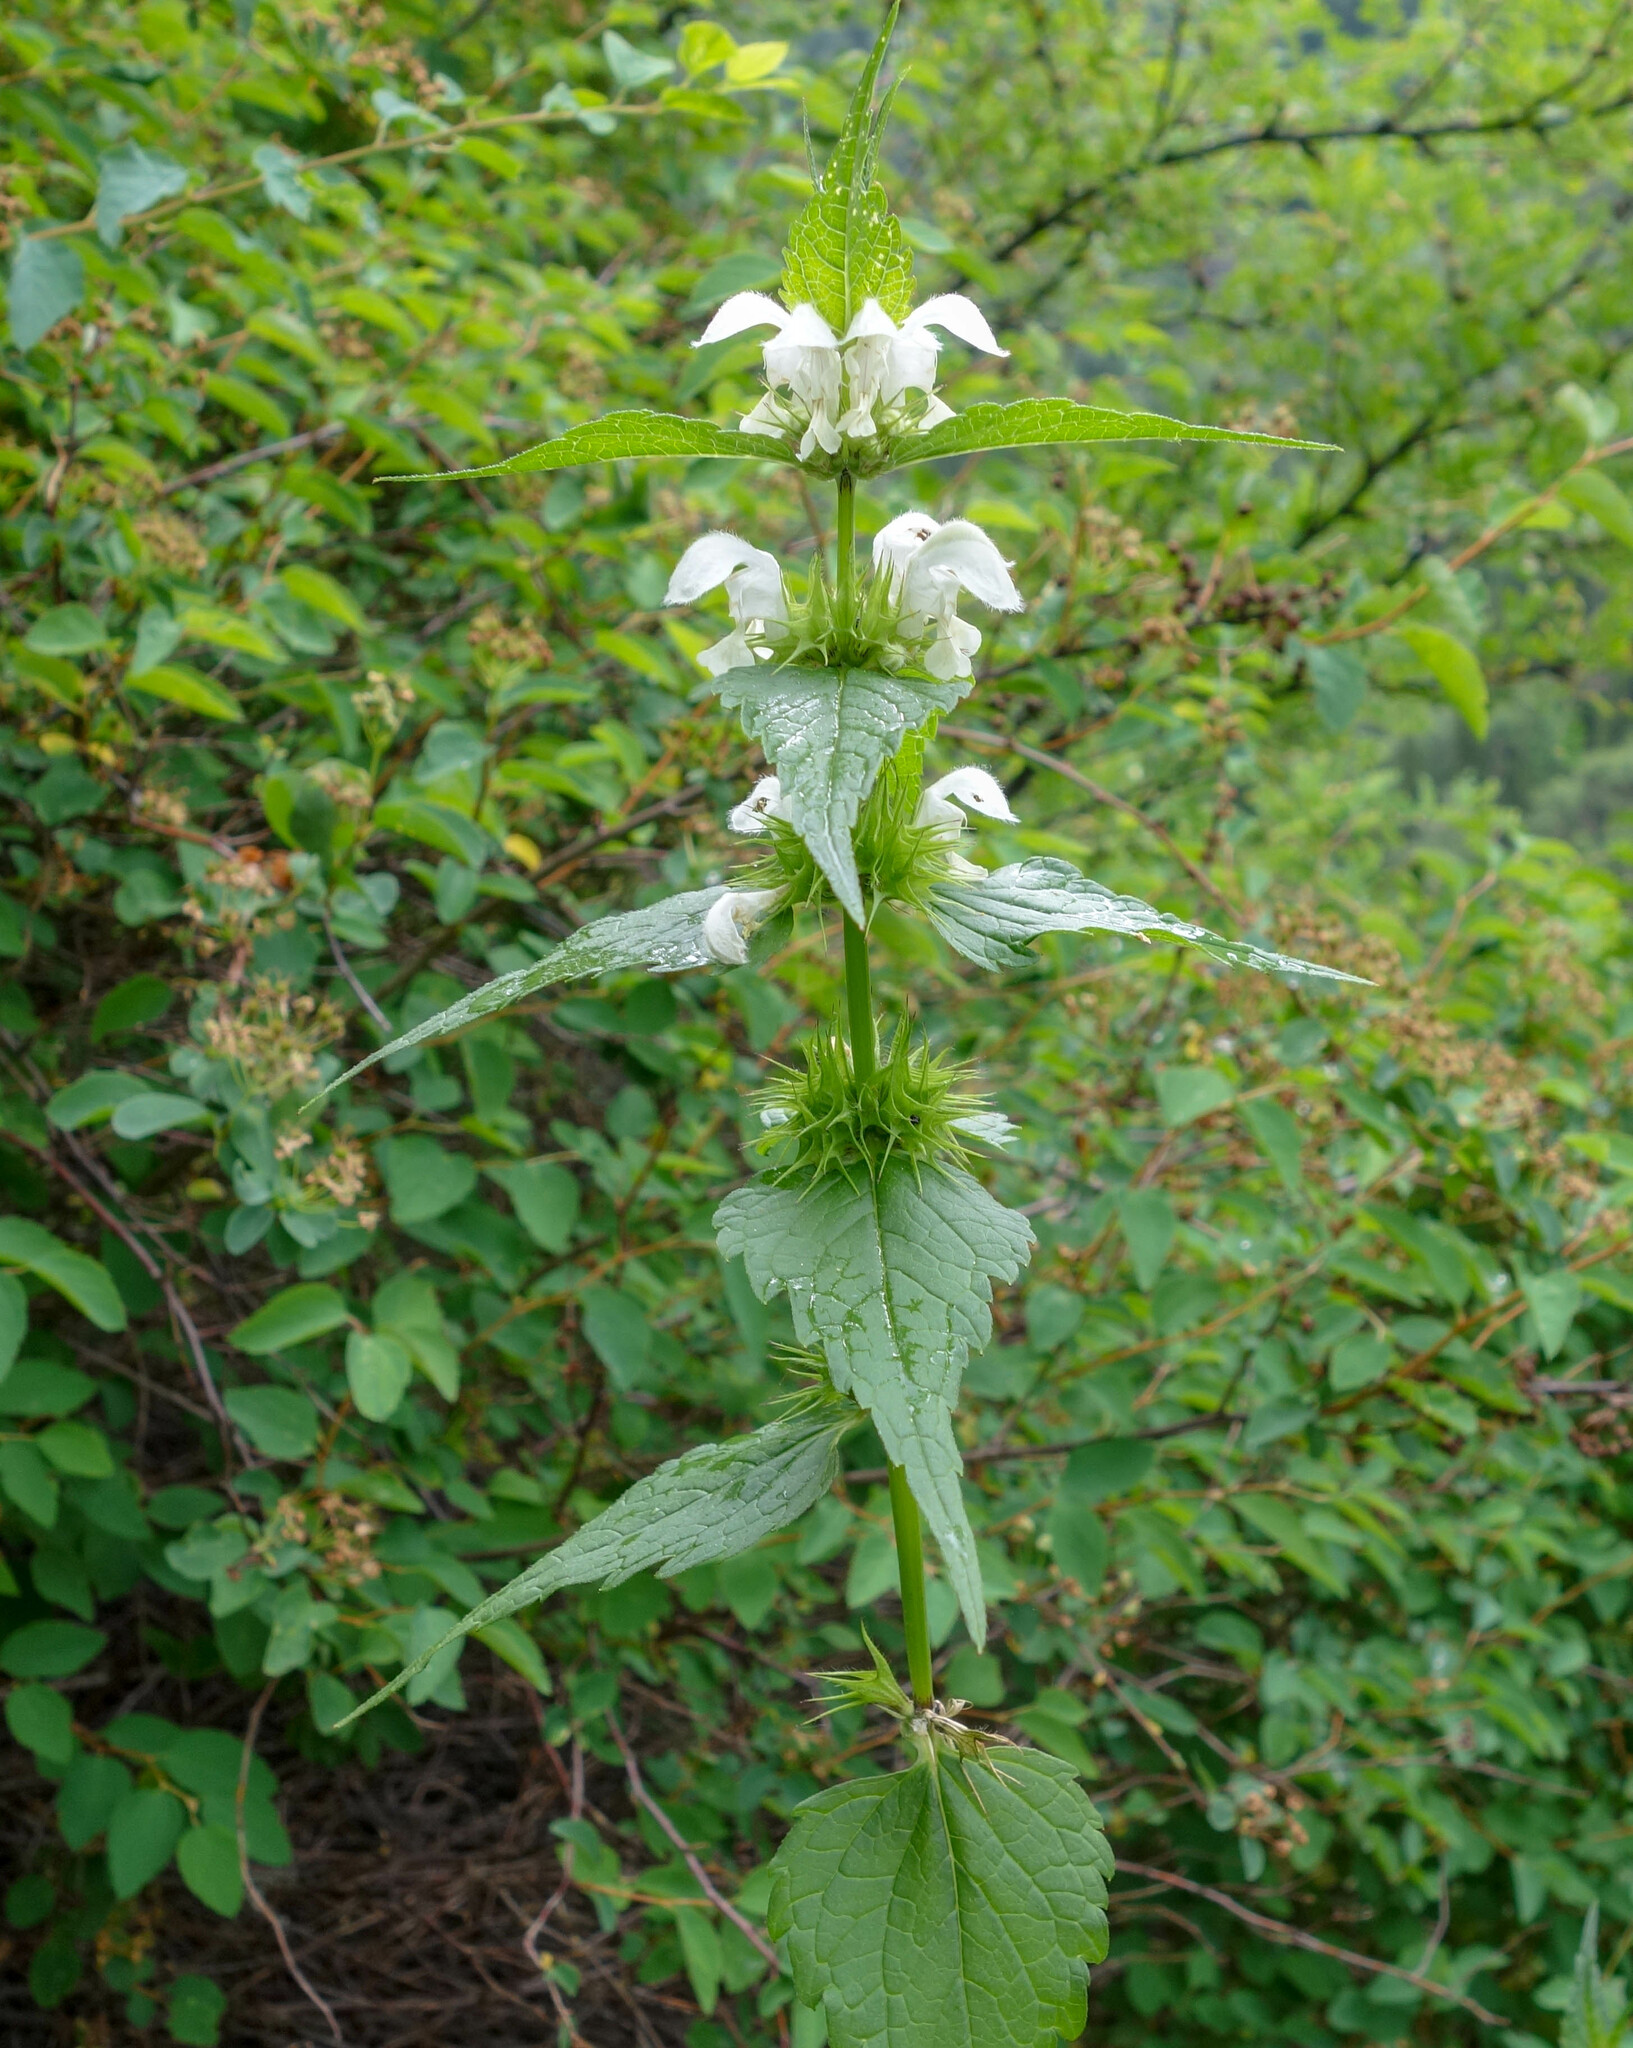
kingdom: Plantae
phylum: Tracheophyta
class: Magnoliopsida
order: Lamiales
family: Lamiaceae
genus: Lamium
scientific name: Lamium album
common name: White dead-nettle
